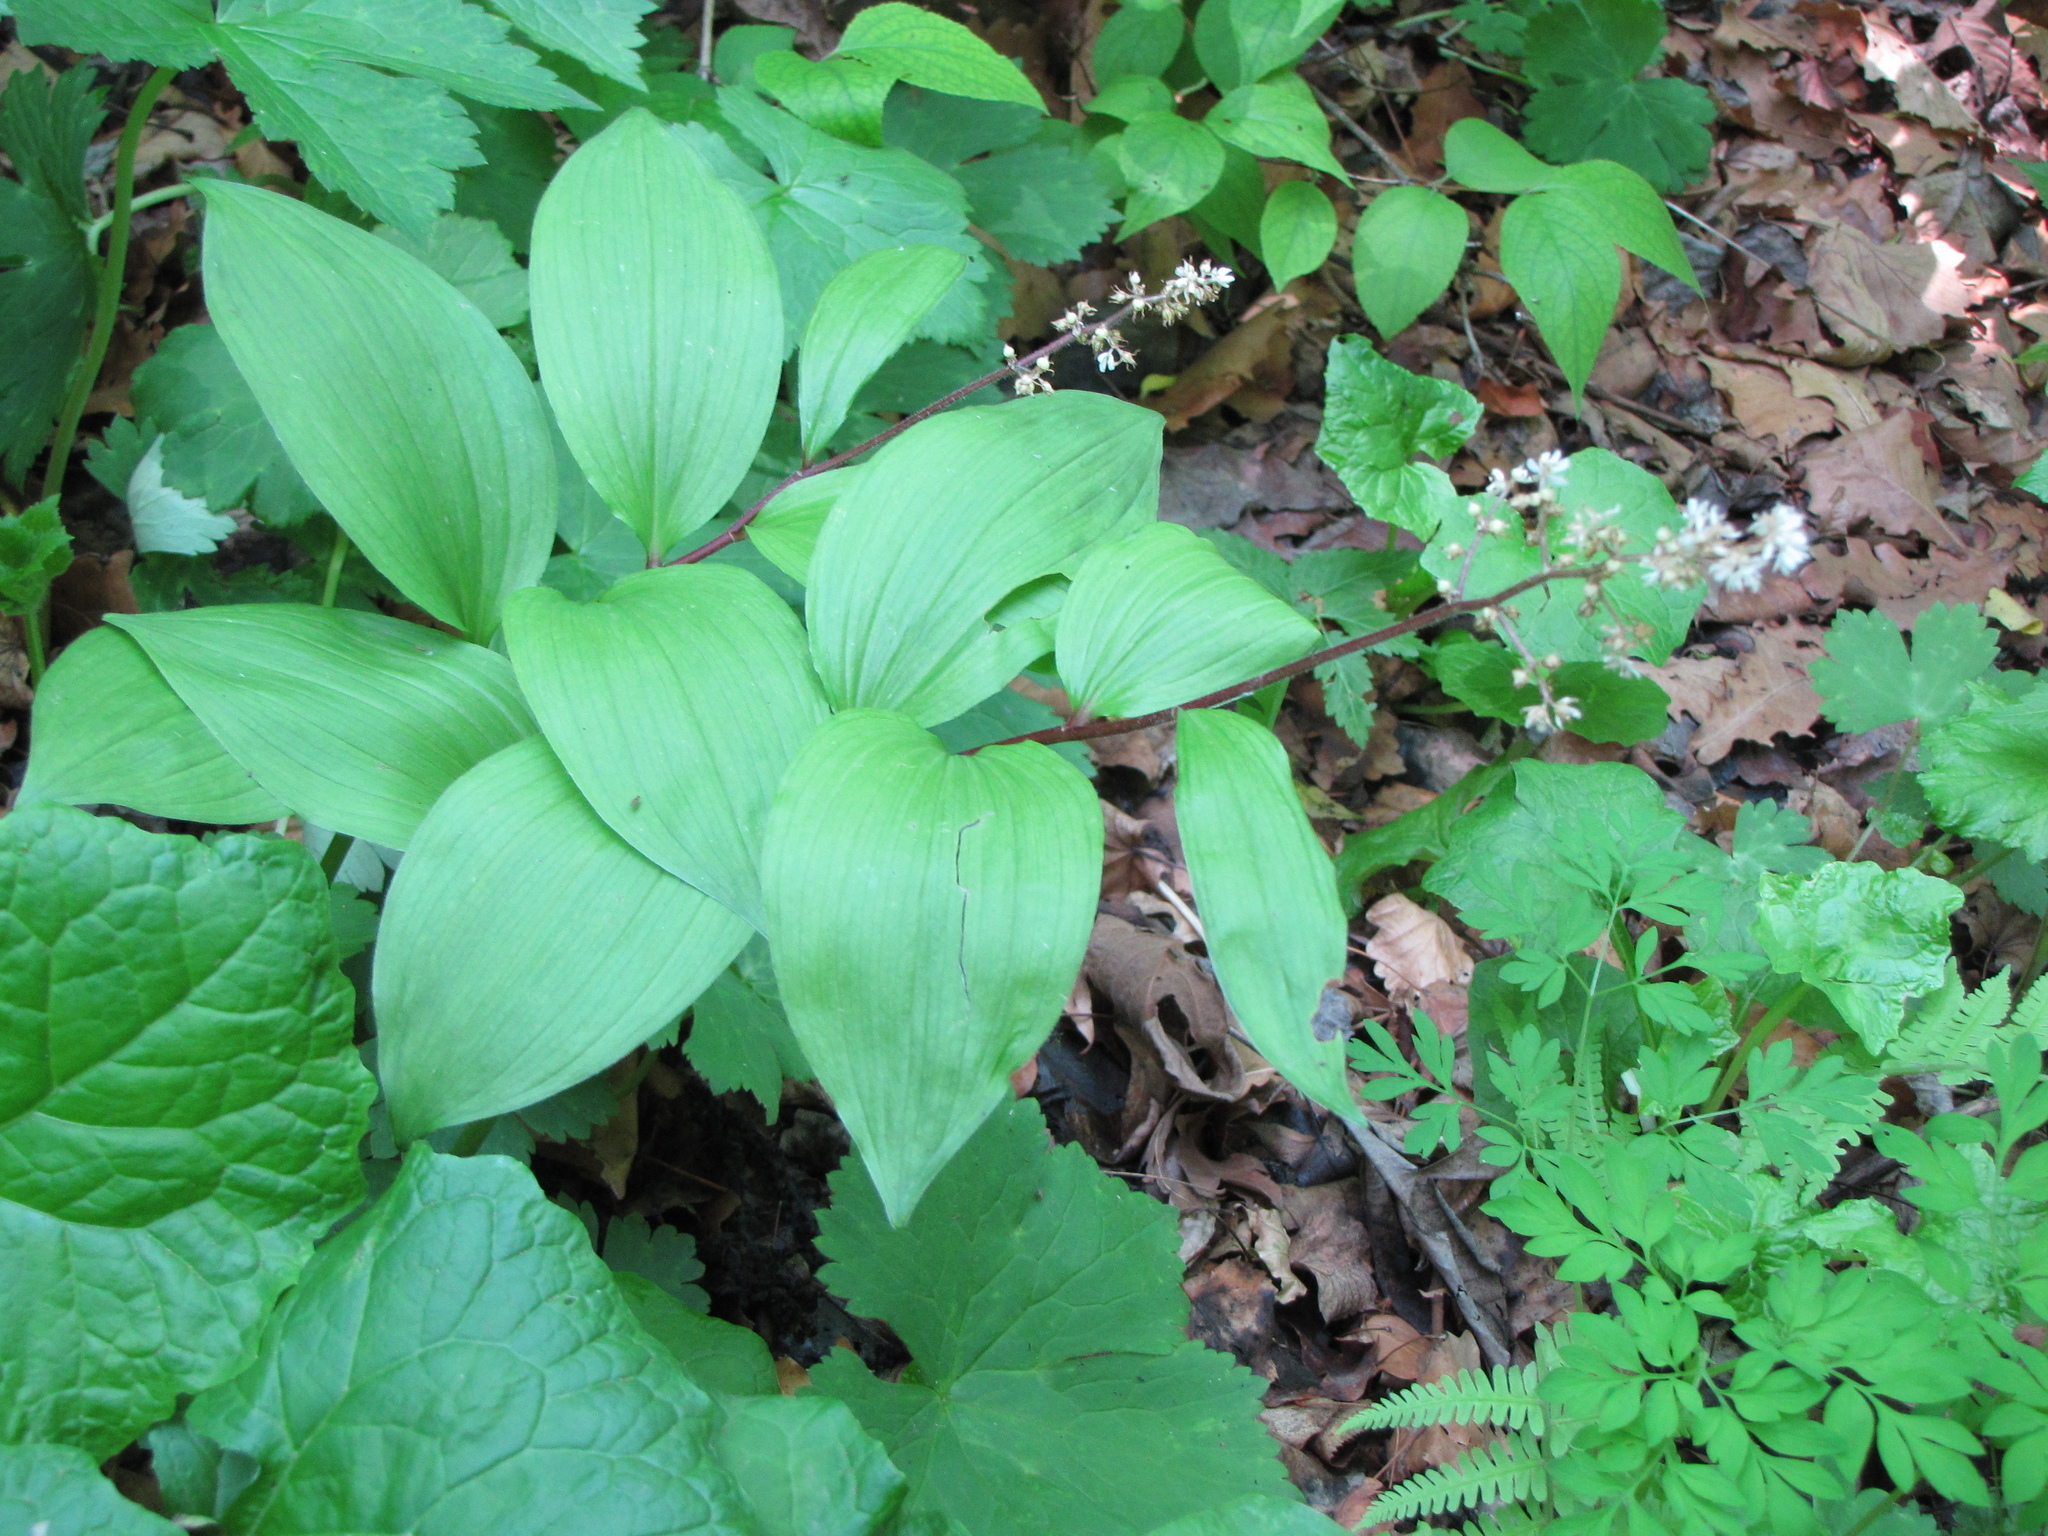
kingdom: Plantae
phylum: Tracheophyta
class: Liliopsida
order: Asparagales
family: Asparagaceae
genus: Maianthemum
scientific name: Maianthemum japonicum
